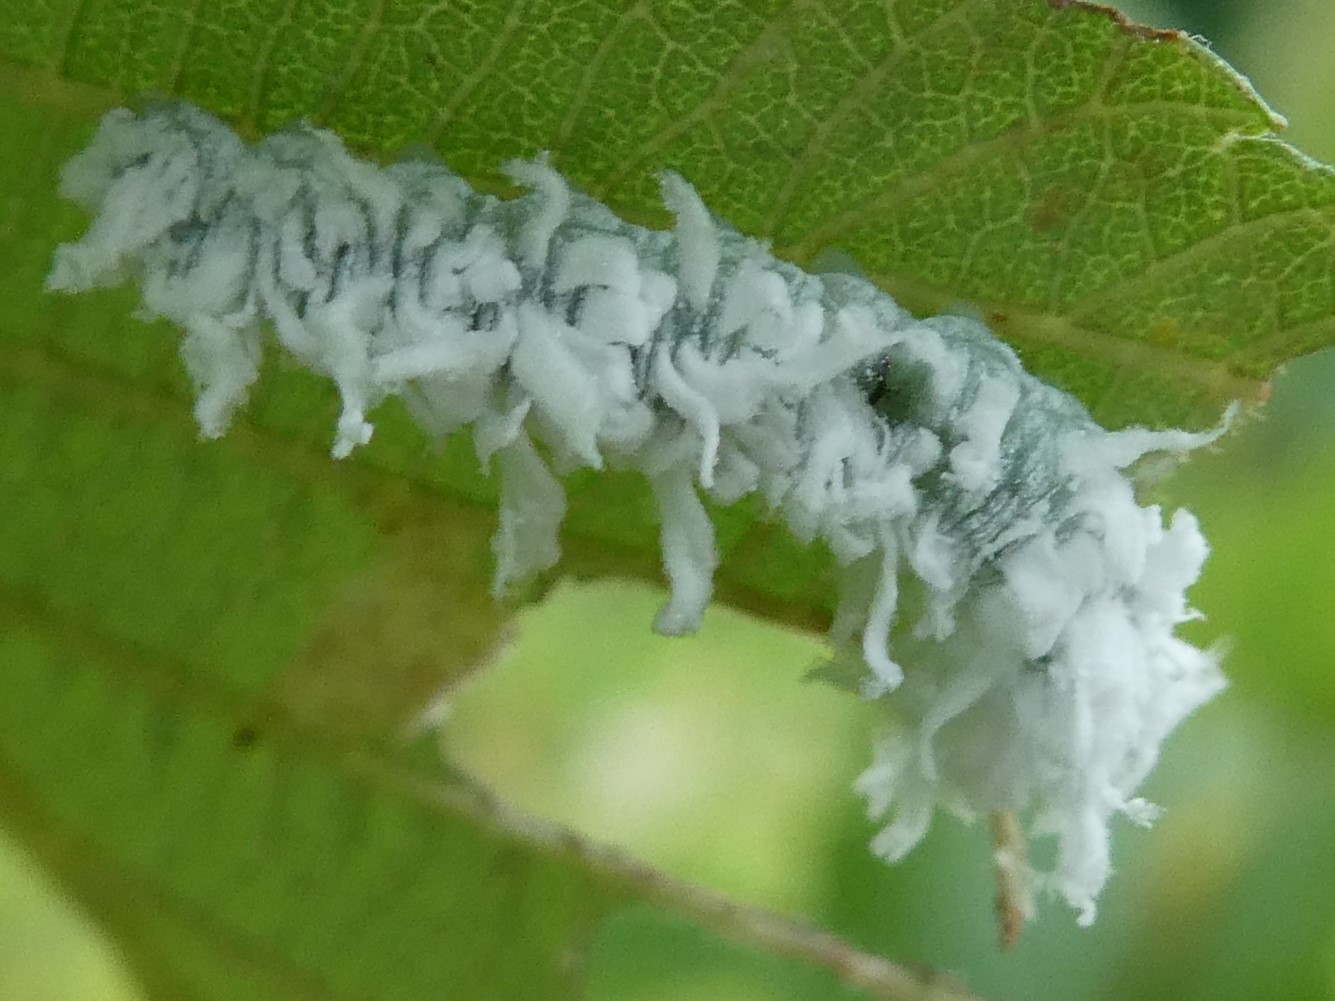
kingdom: Animalia
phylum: Arthropoda
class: Insecta
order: Hymenoptera
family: Tenthredinidae
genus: Eriocampa
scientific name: Eriocampa ovata
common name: Alder wooly sawfly
